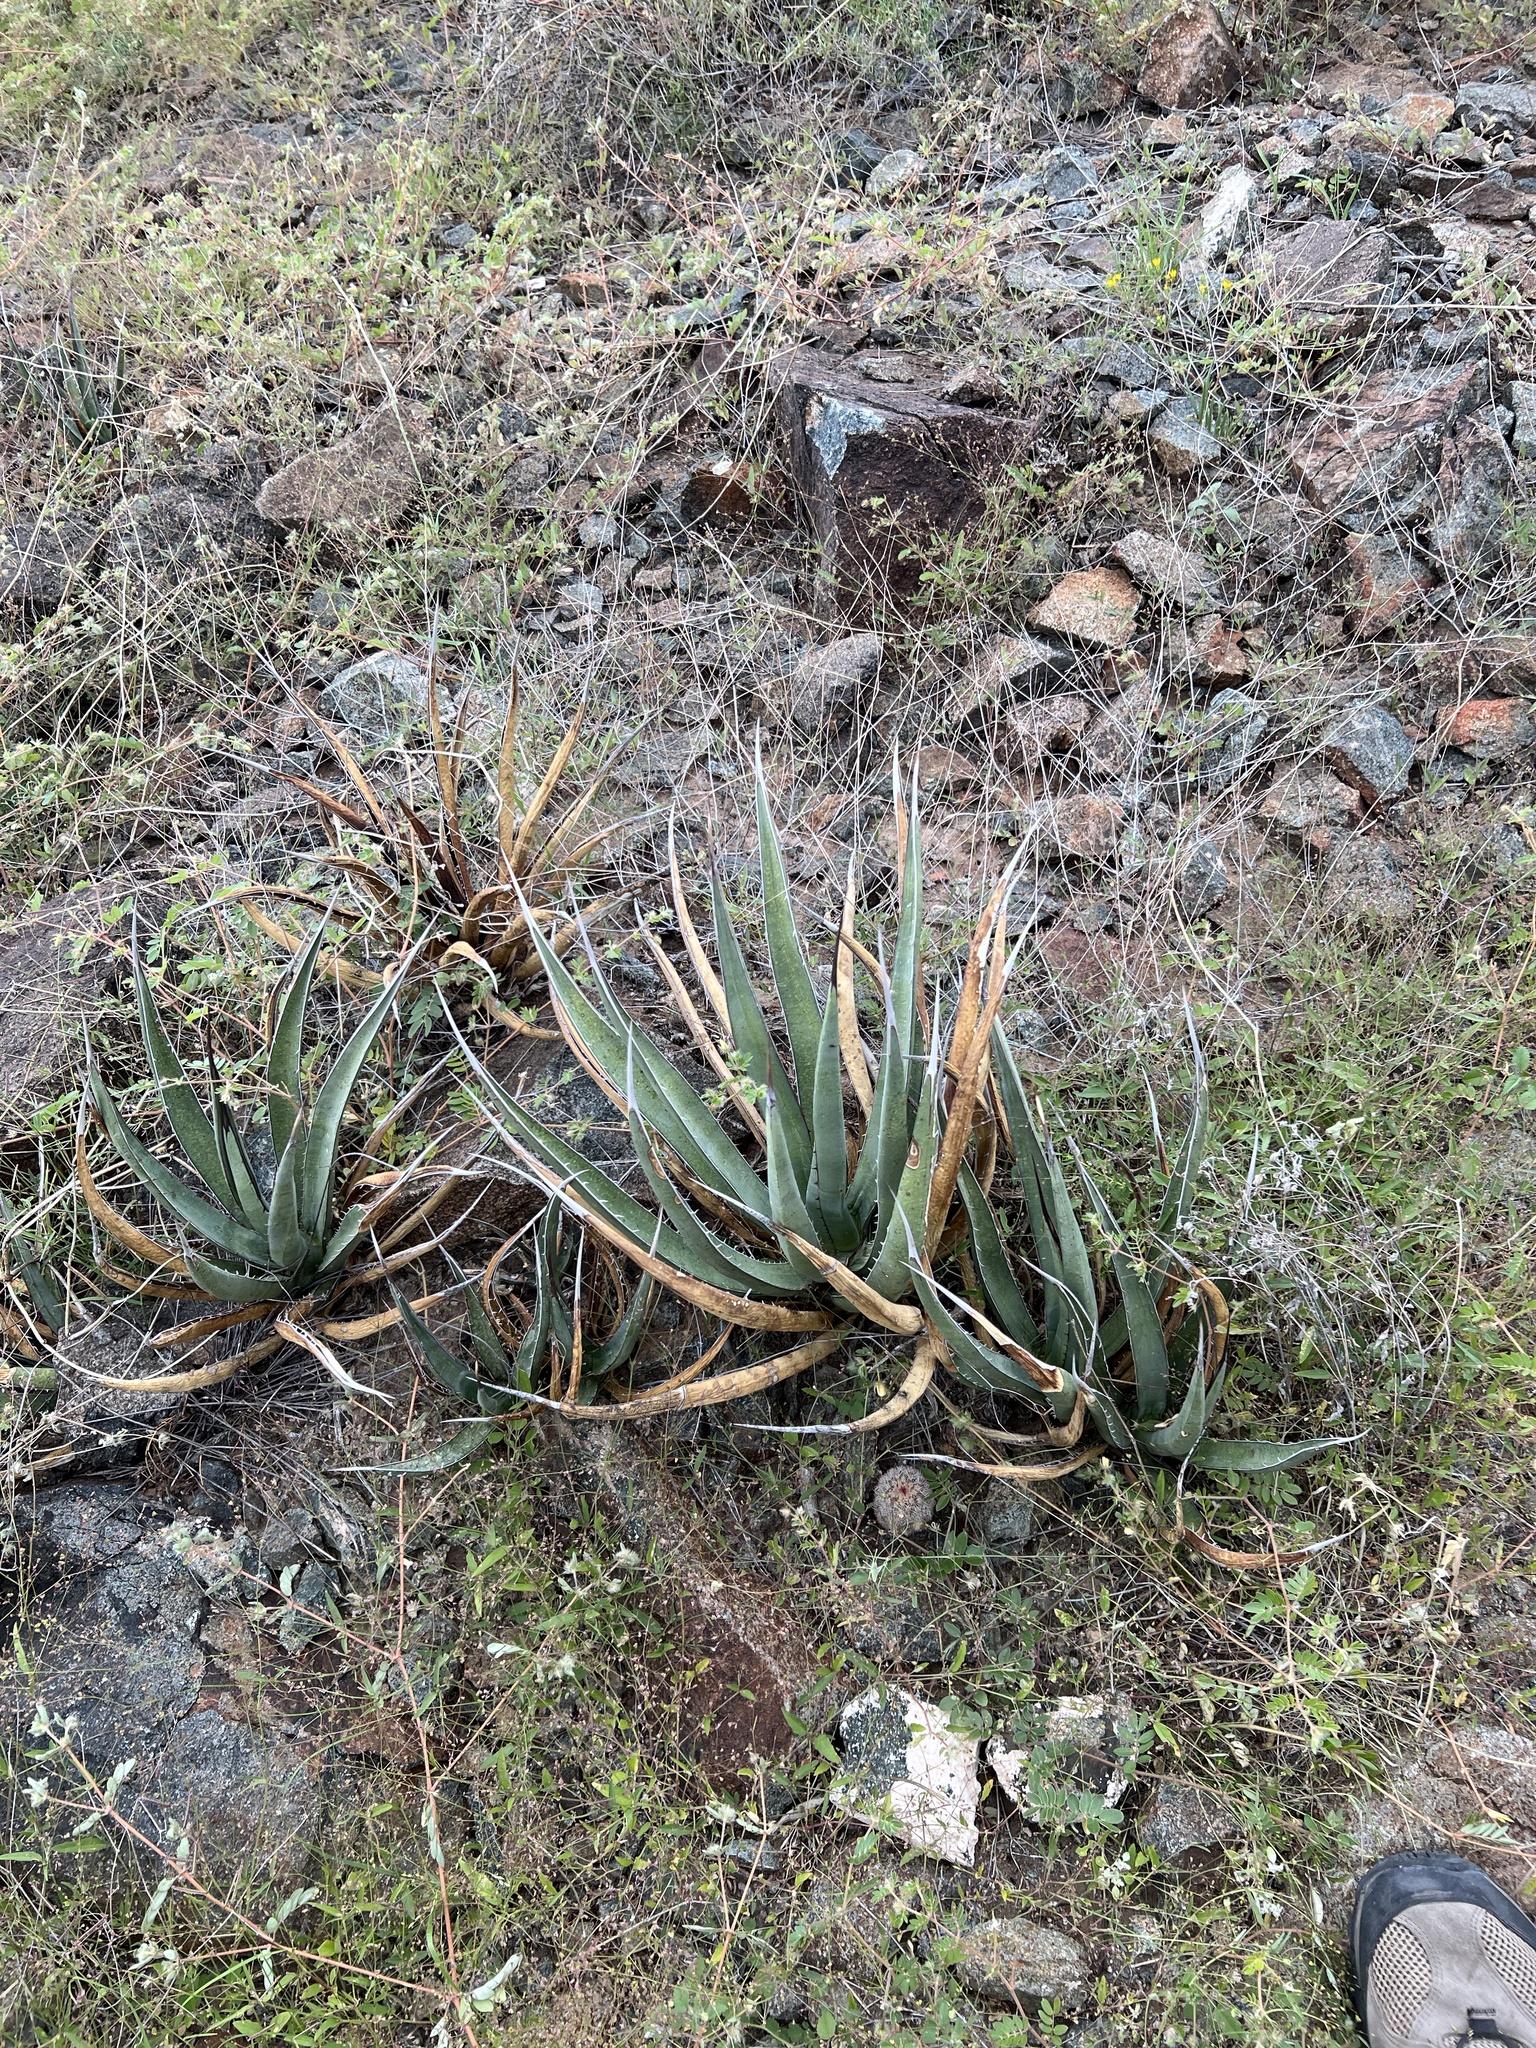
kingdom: Plantae
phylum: Tracheophyta
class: Liliopsida
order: Asparagales
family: Asparagaceae
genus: Agave
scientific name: Agave lechuguilla
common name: Lecheguilla agave
